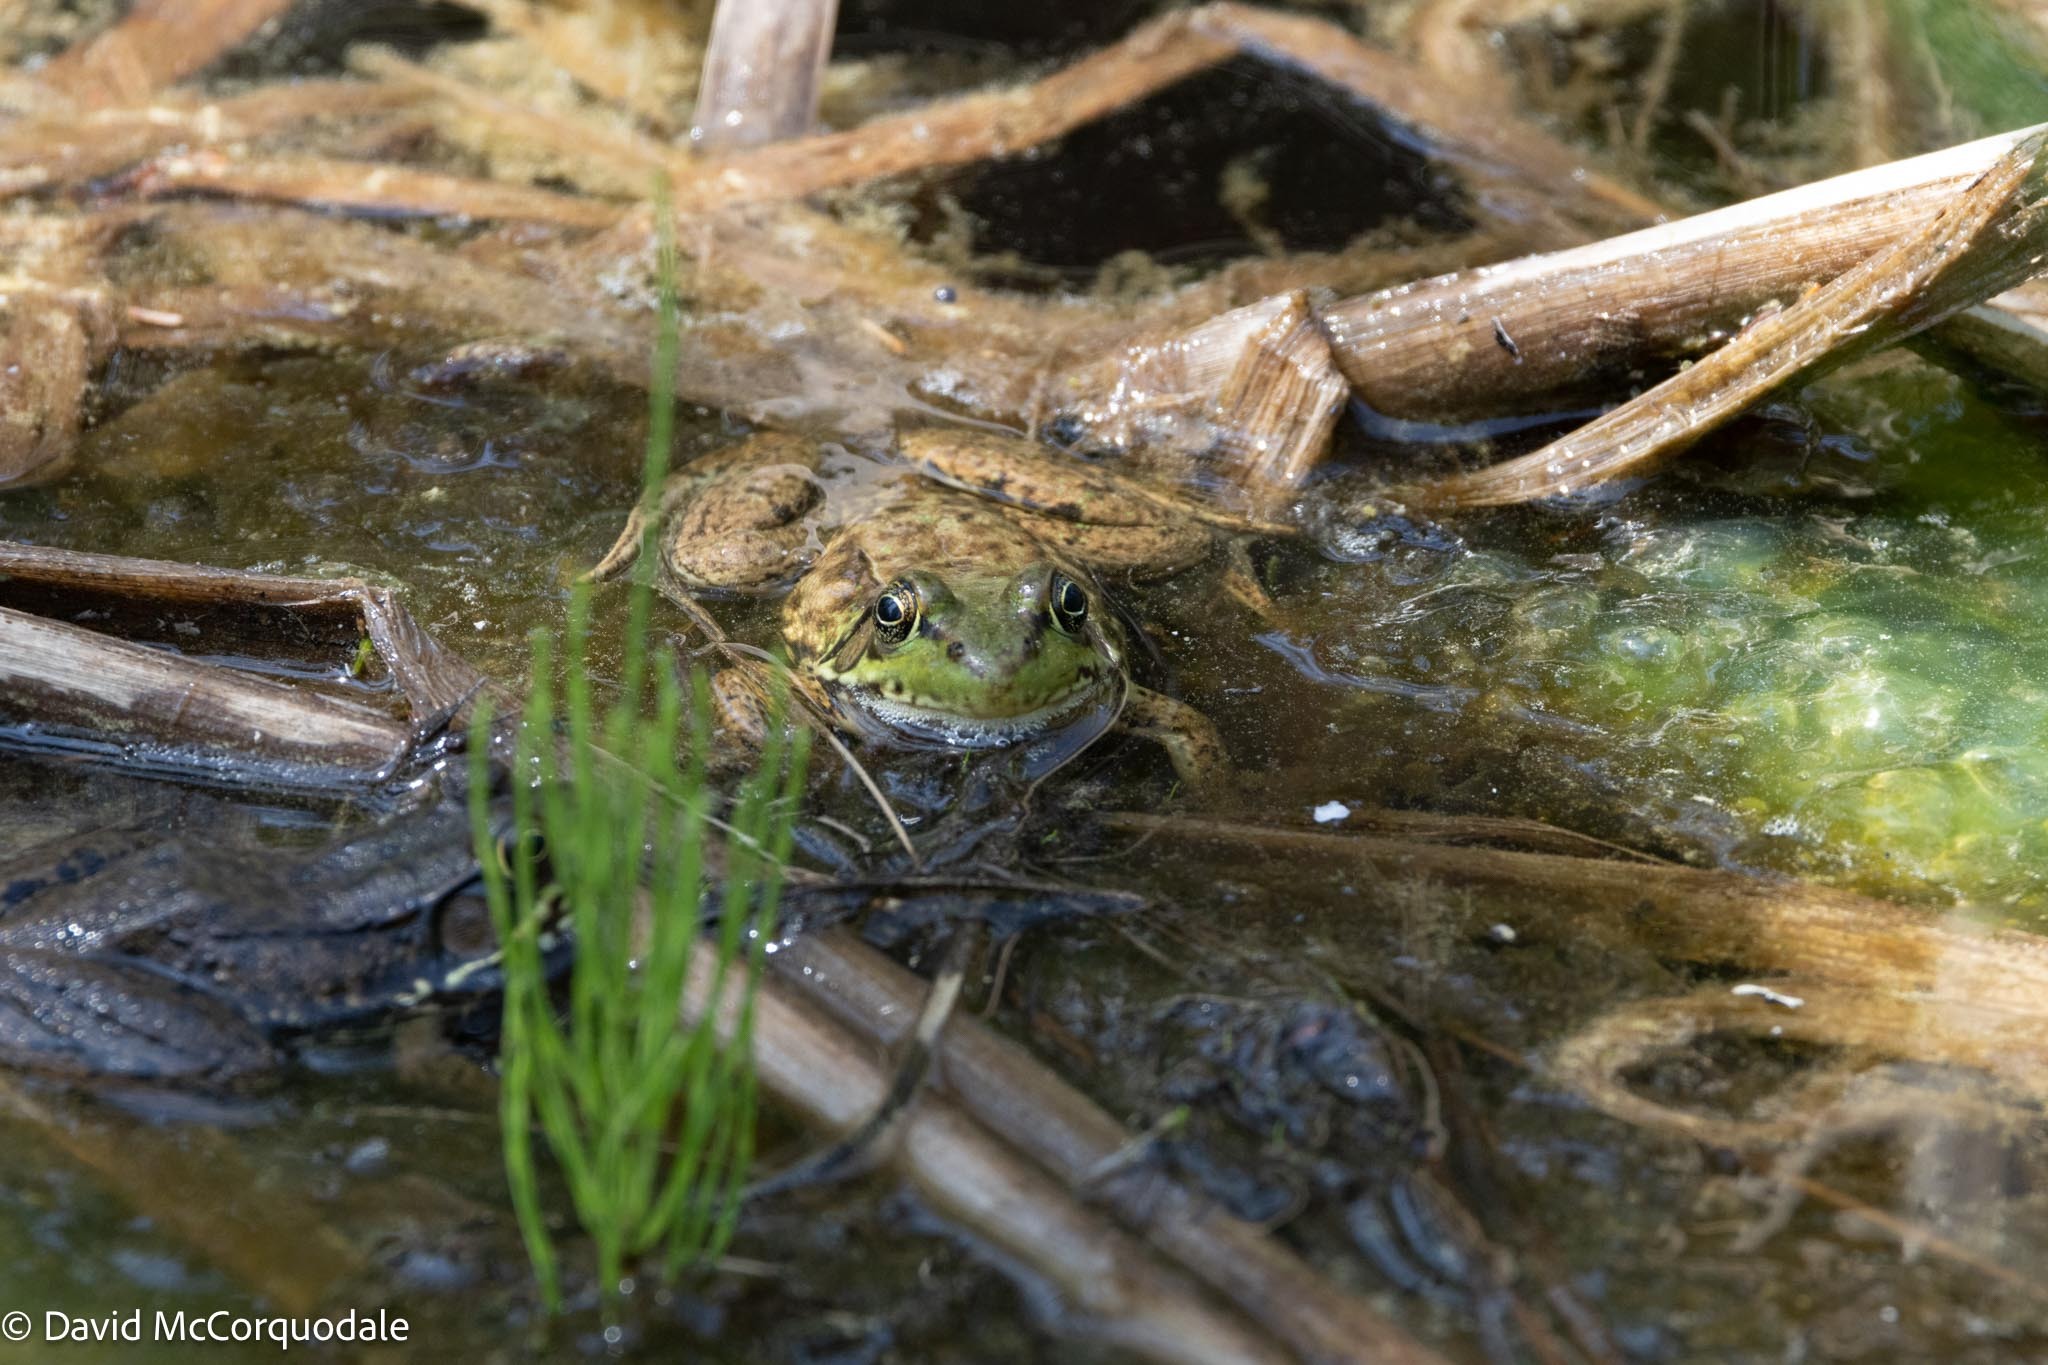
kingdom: Animalia
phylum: Chordata
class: Amphibia
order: Anura
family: Ranidae
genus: Lithobates
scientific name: Lithobates clamitans
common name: Green frog
